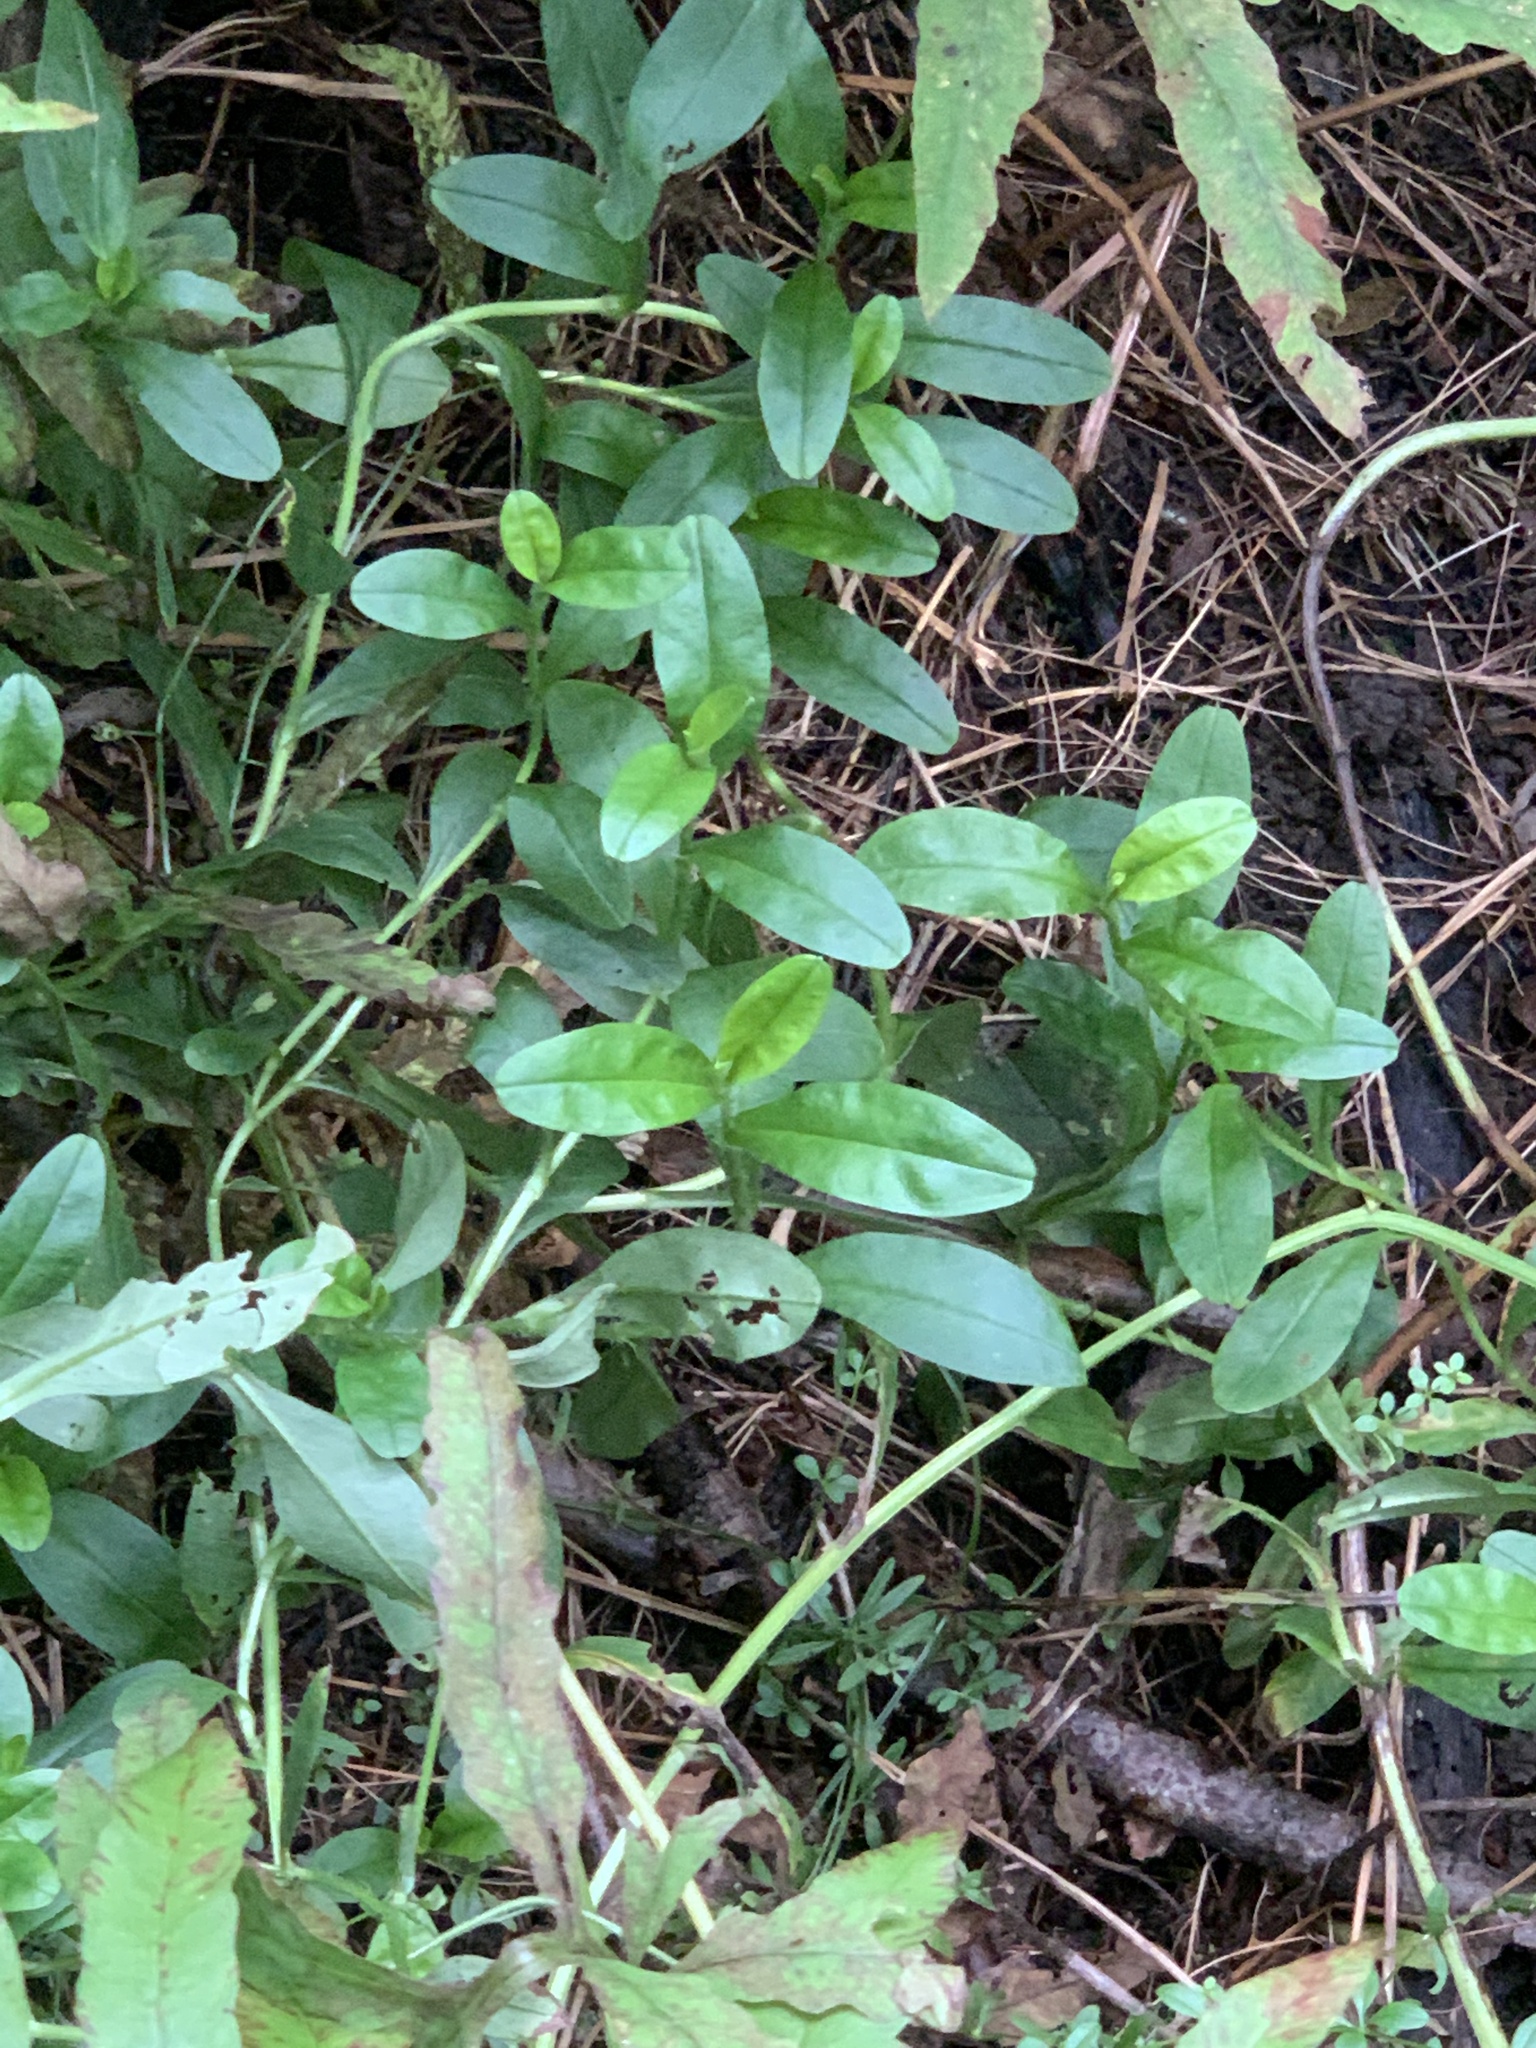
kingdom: Plantae
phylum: Tracheophyta
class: Magnoliopsida
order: Boraginales
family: Boraginaceae
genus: Myosotis
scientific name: Myosotis scorpioides
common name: Water forget-me-not
